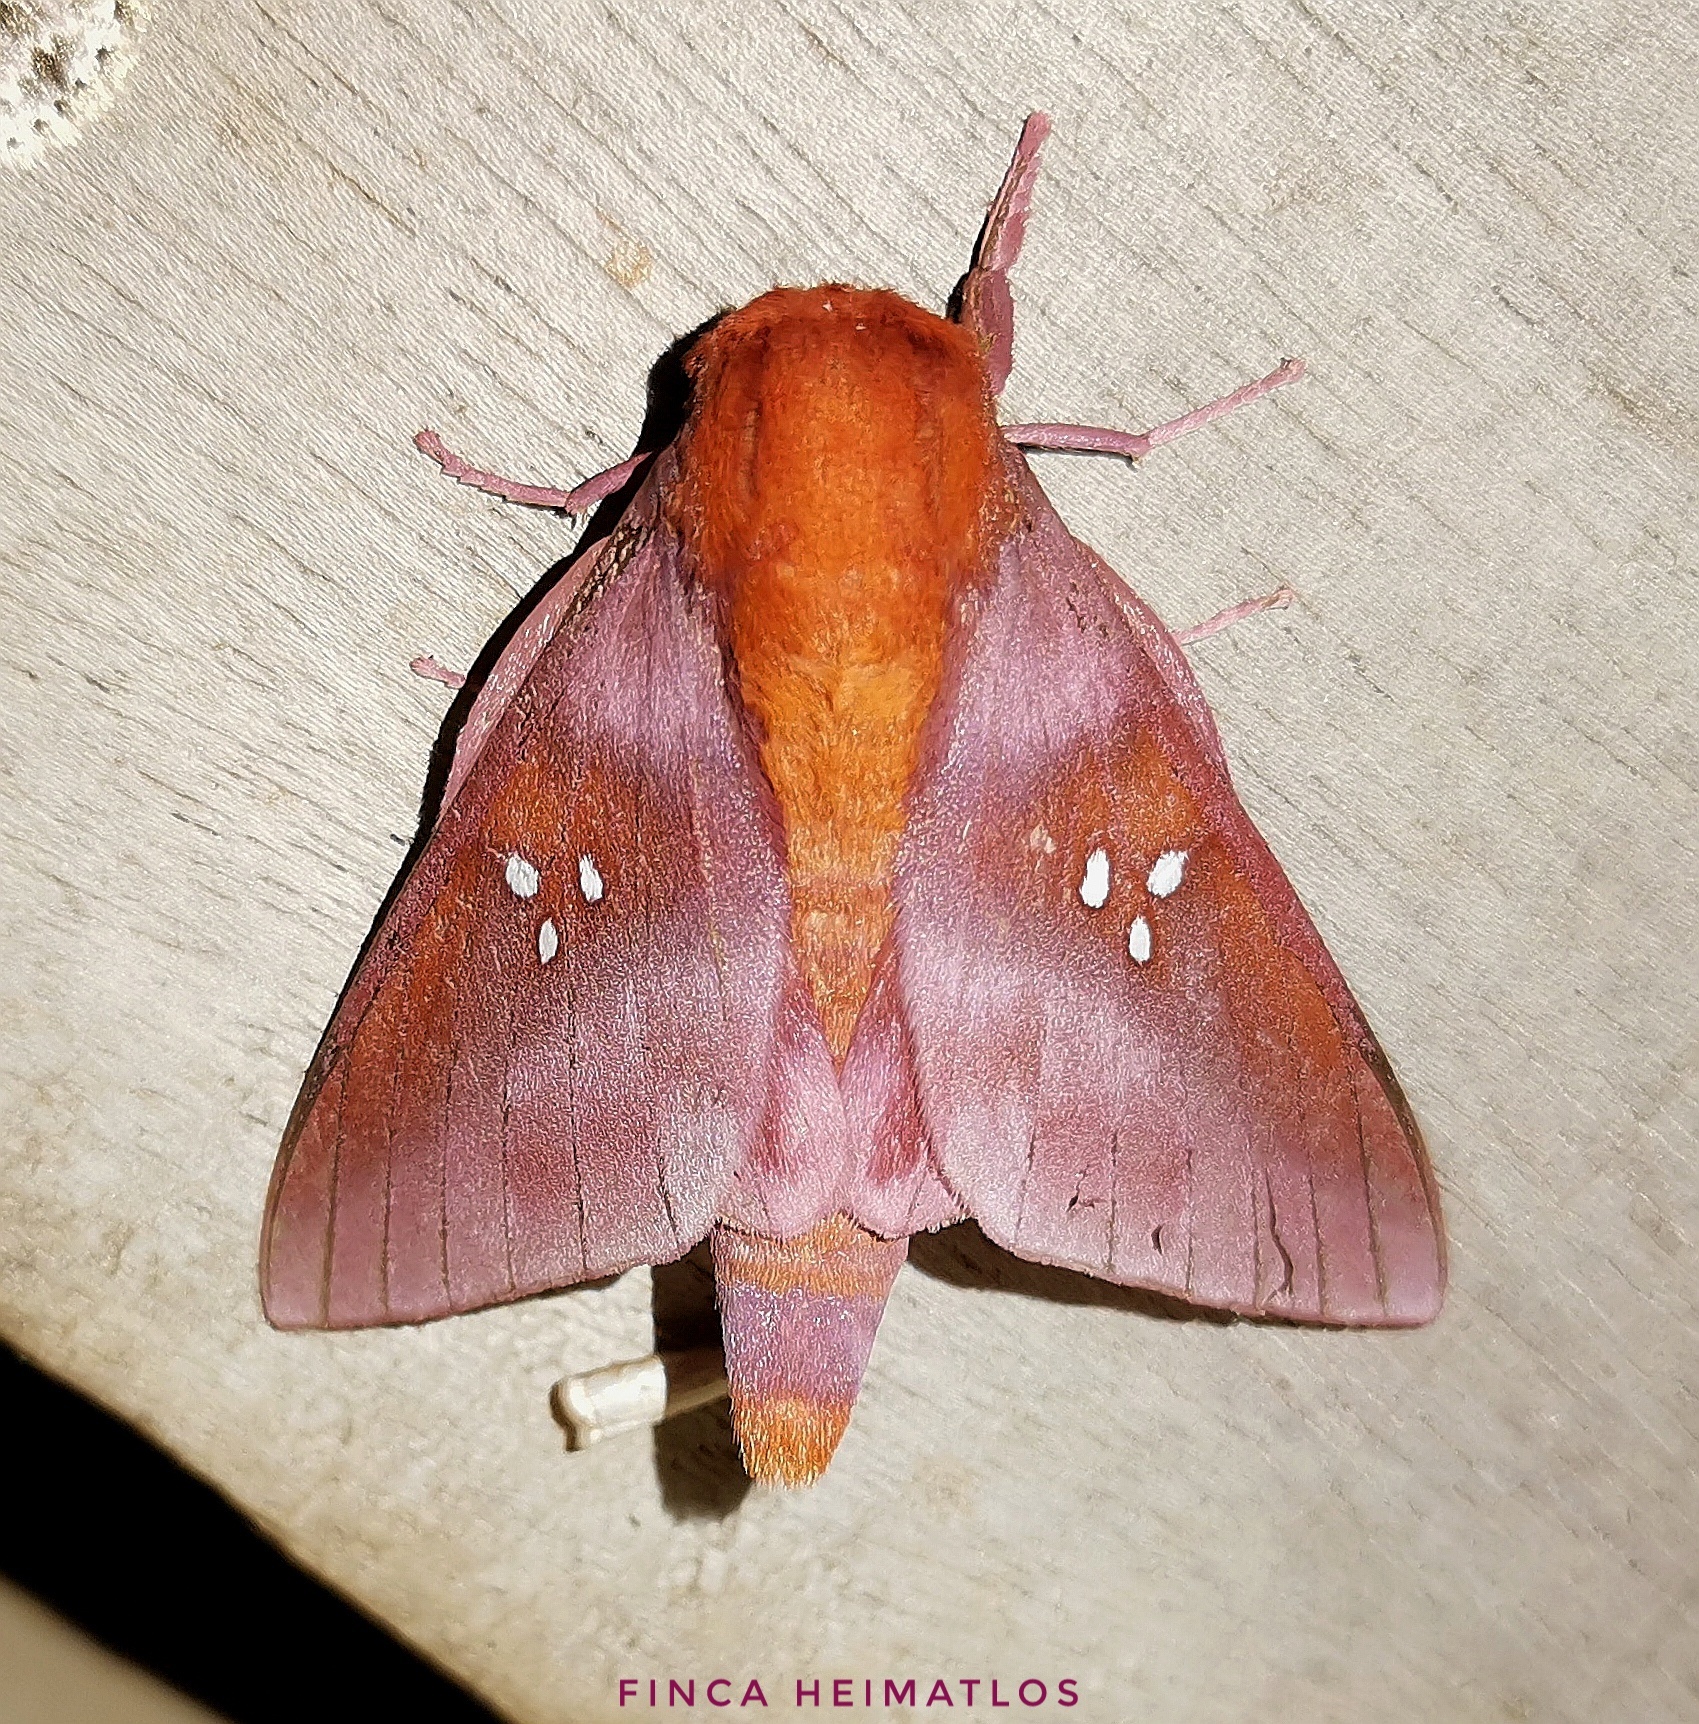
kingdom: Animalia
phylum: Arthropoda
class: Insecta
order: Lepidoptera
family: Saturniidae
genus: Adelowalkeria
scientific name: Adelowalkeria kitchingi
